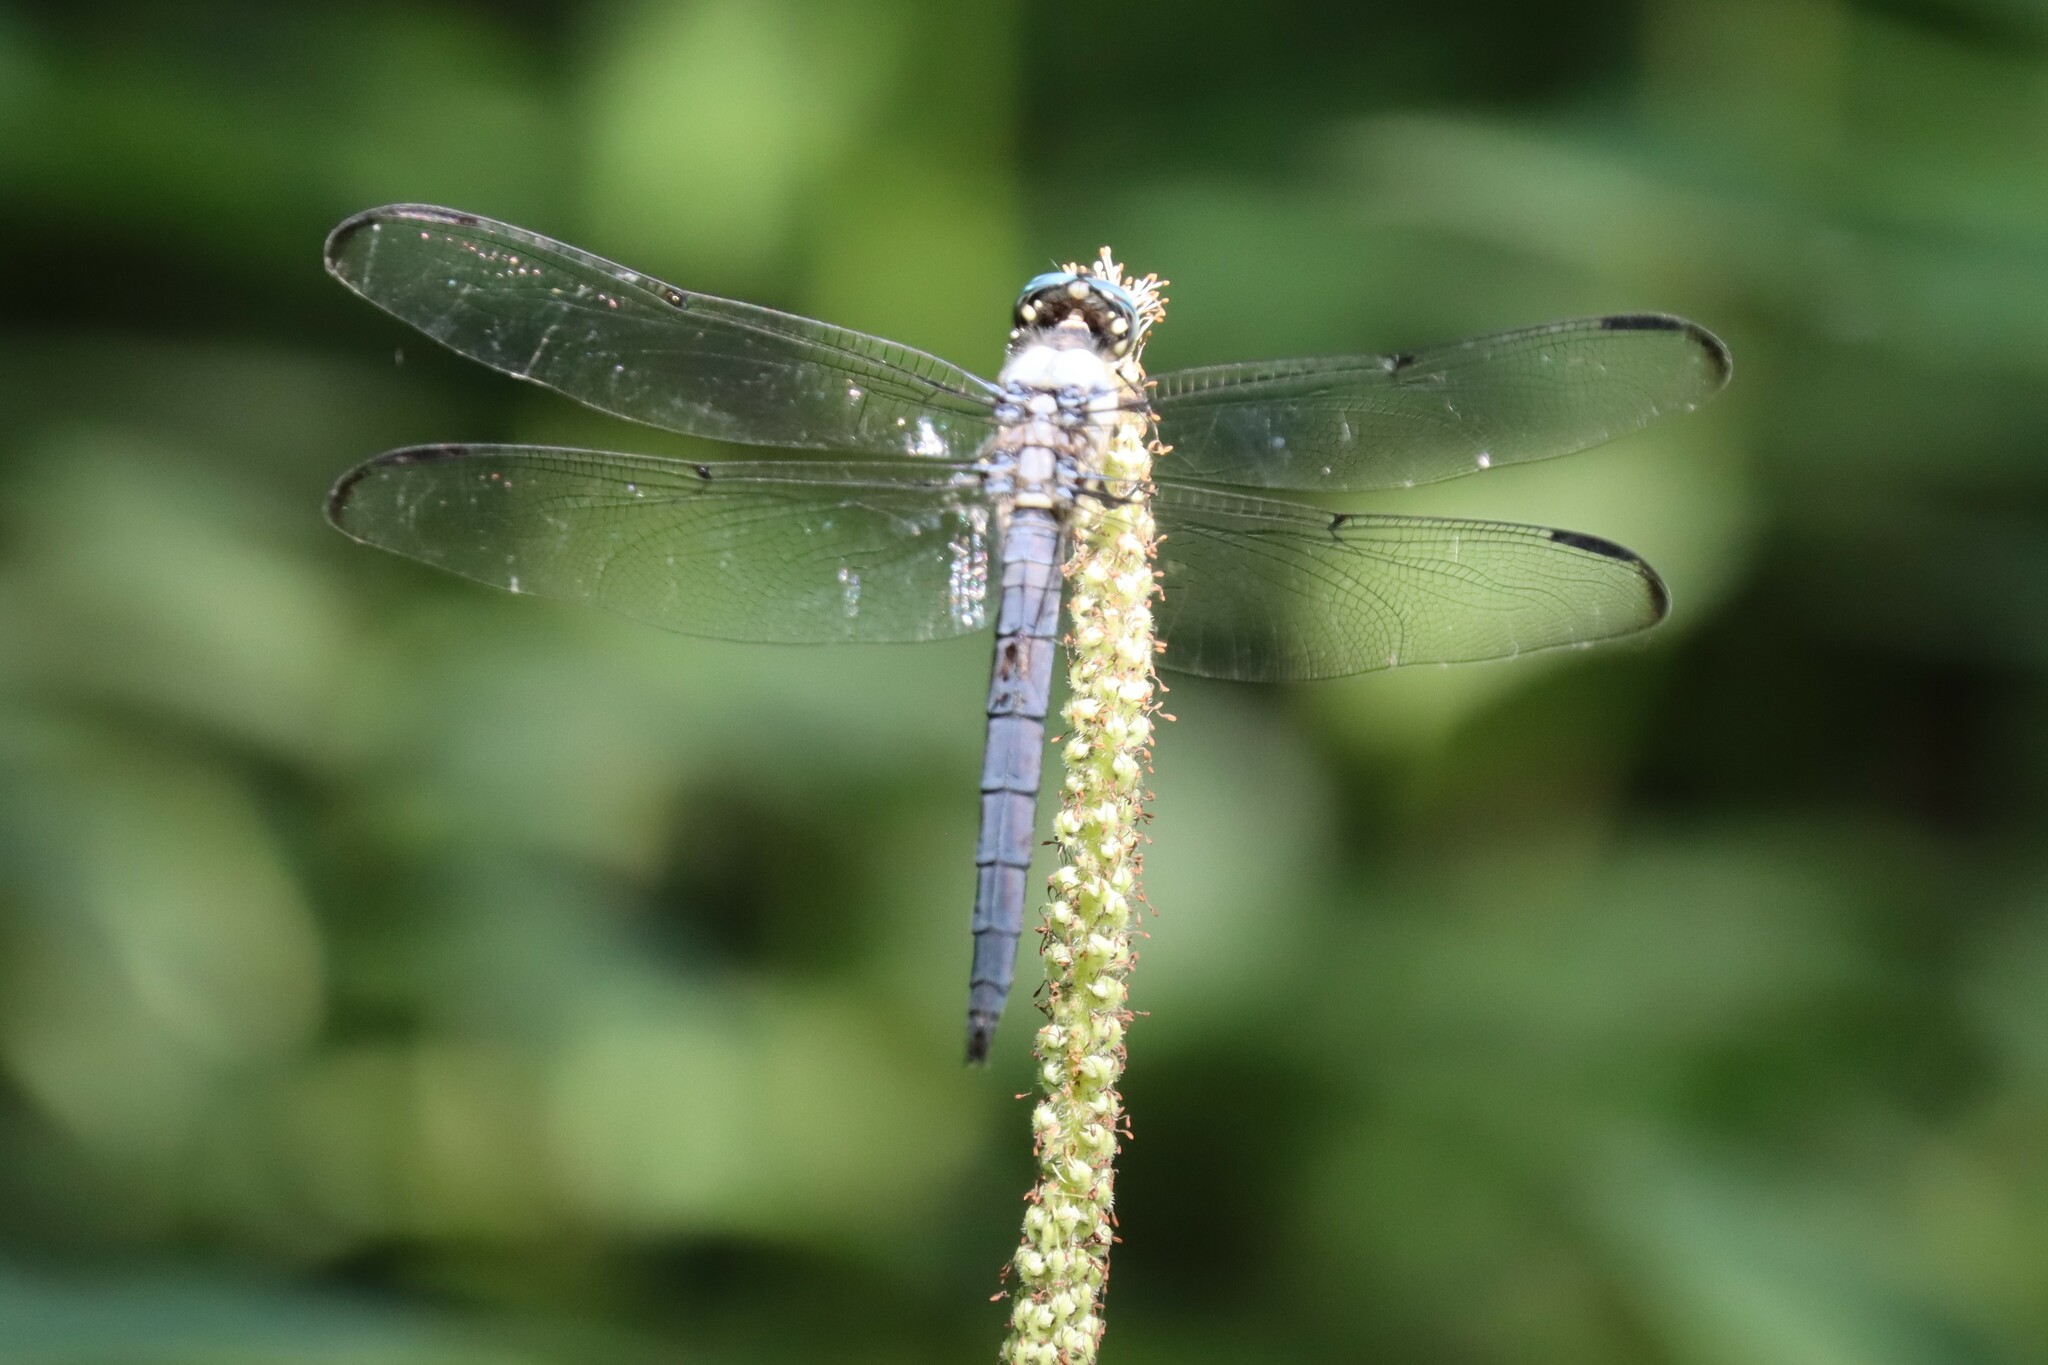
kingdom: Animalia
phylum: Arthropoda
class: Insecta
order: Odonata
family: Libellulidae
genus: Libellula
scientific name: Libellula vibrans
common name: Great blue skimmer
